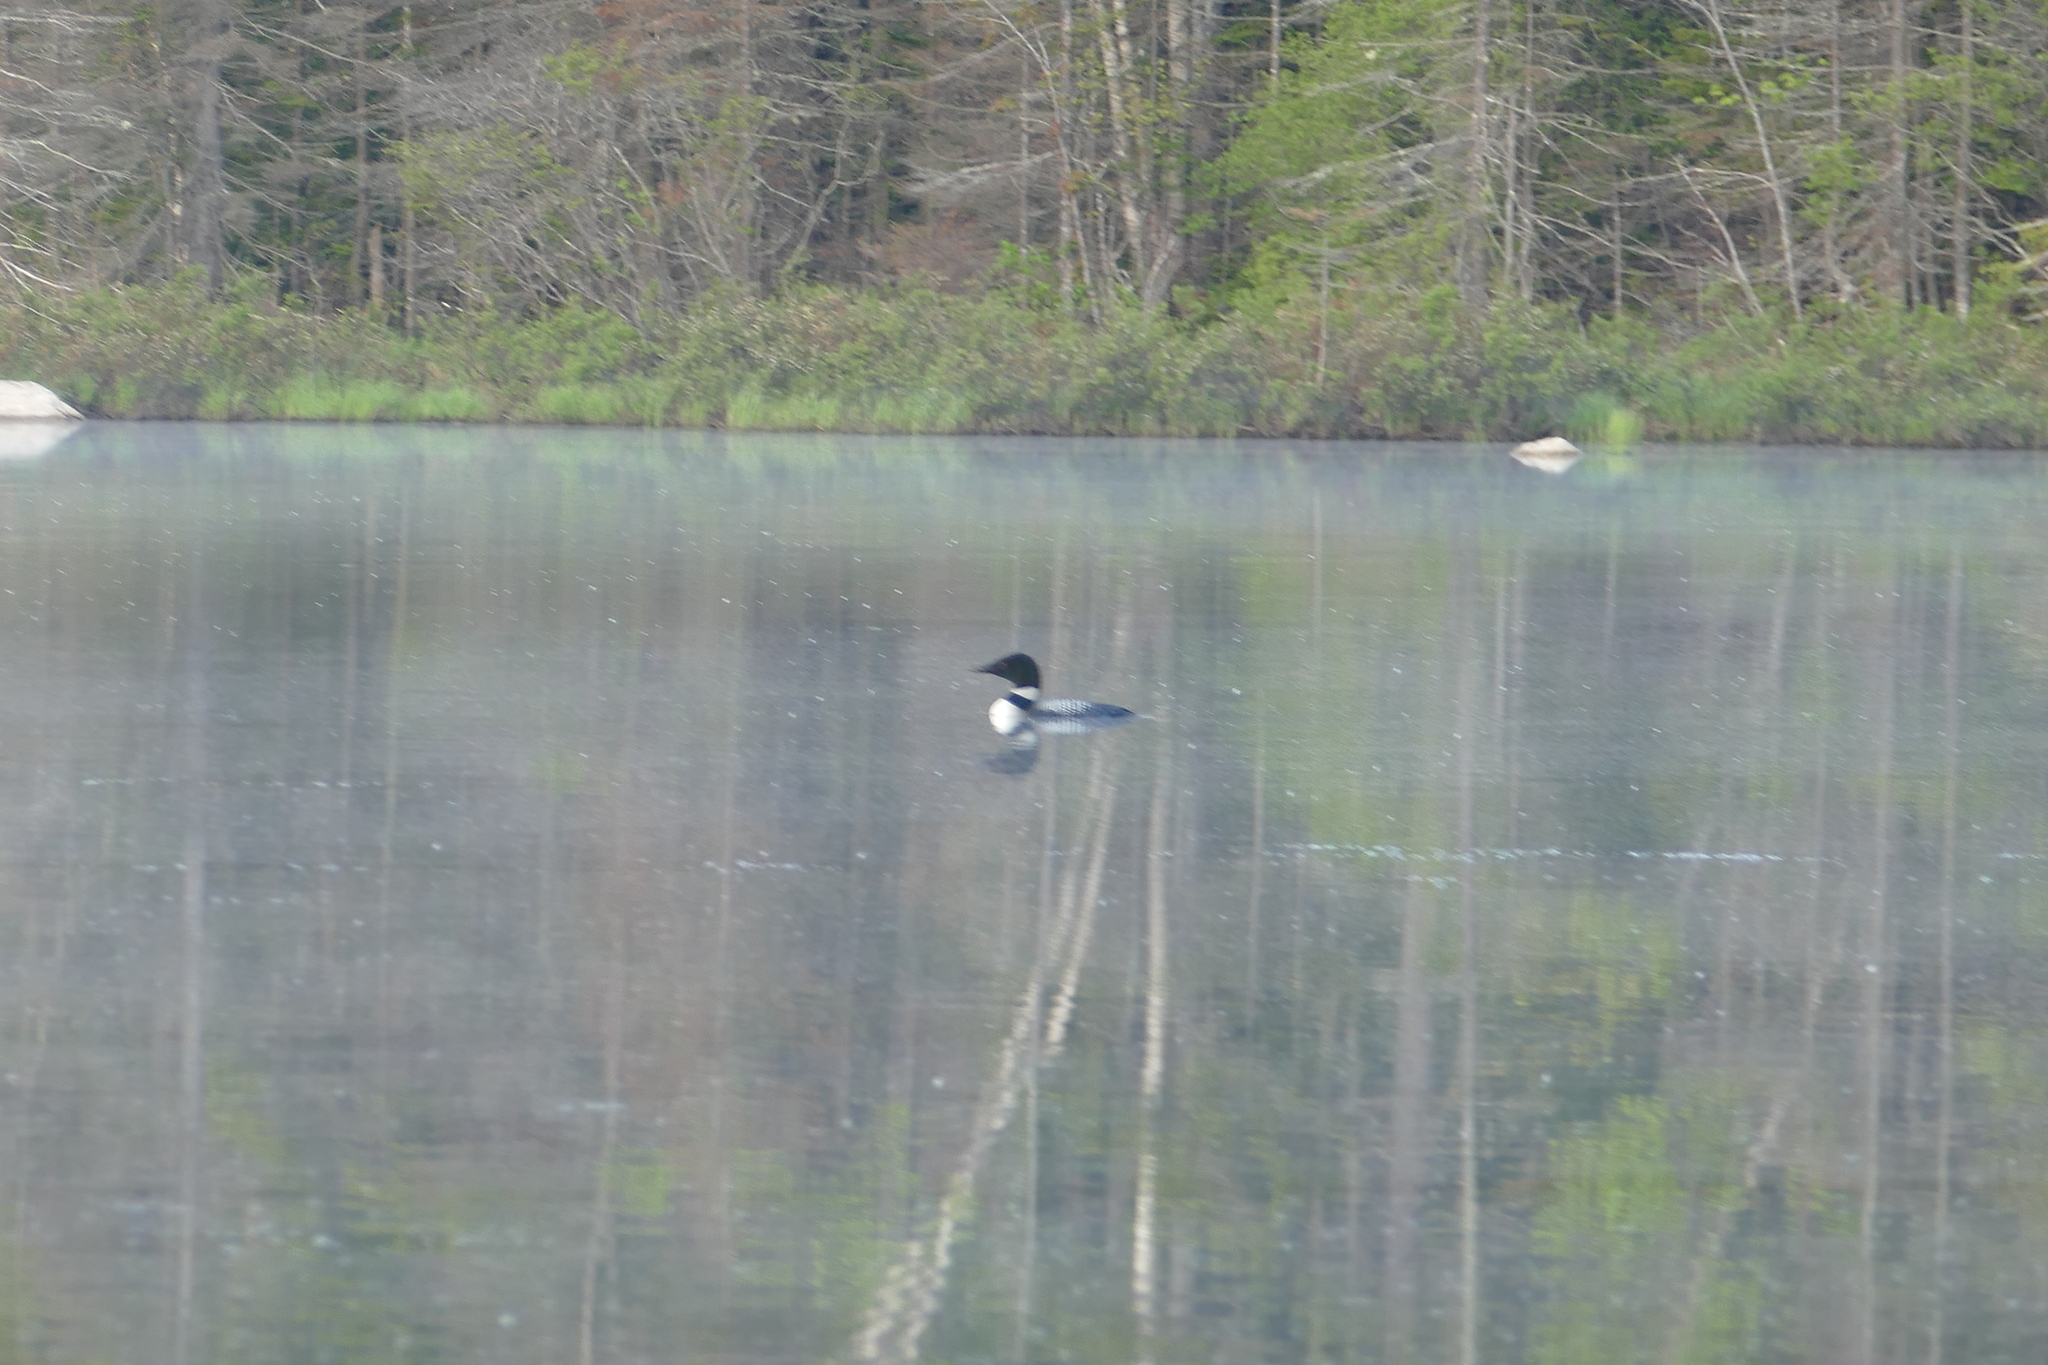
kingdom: Animalia
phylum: Chordata
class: Aves
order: Gaviiformes
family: Gaviidae
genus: Gavia
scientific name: Gavia immer
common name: Common loon
